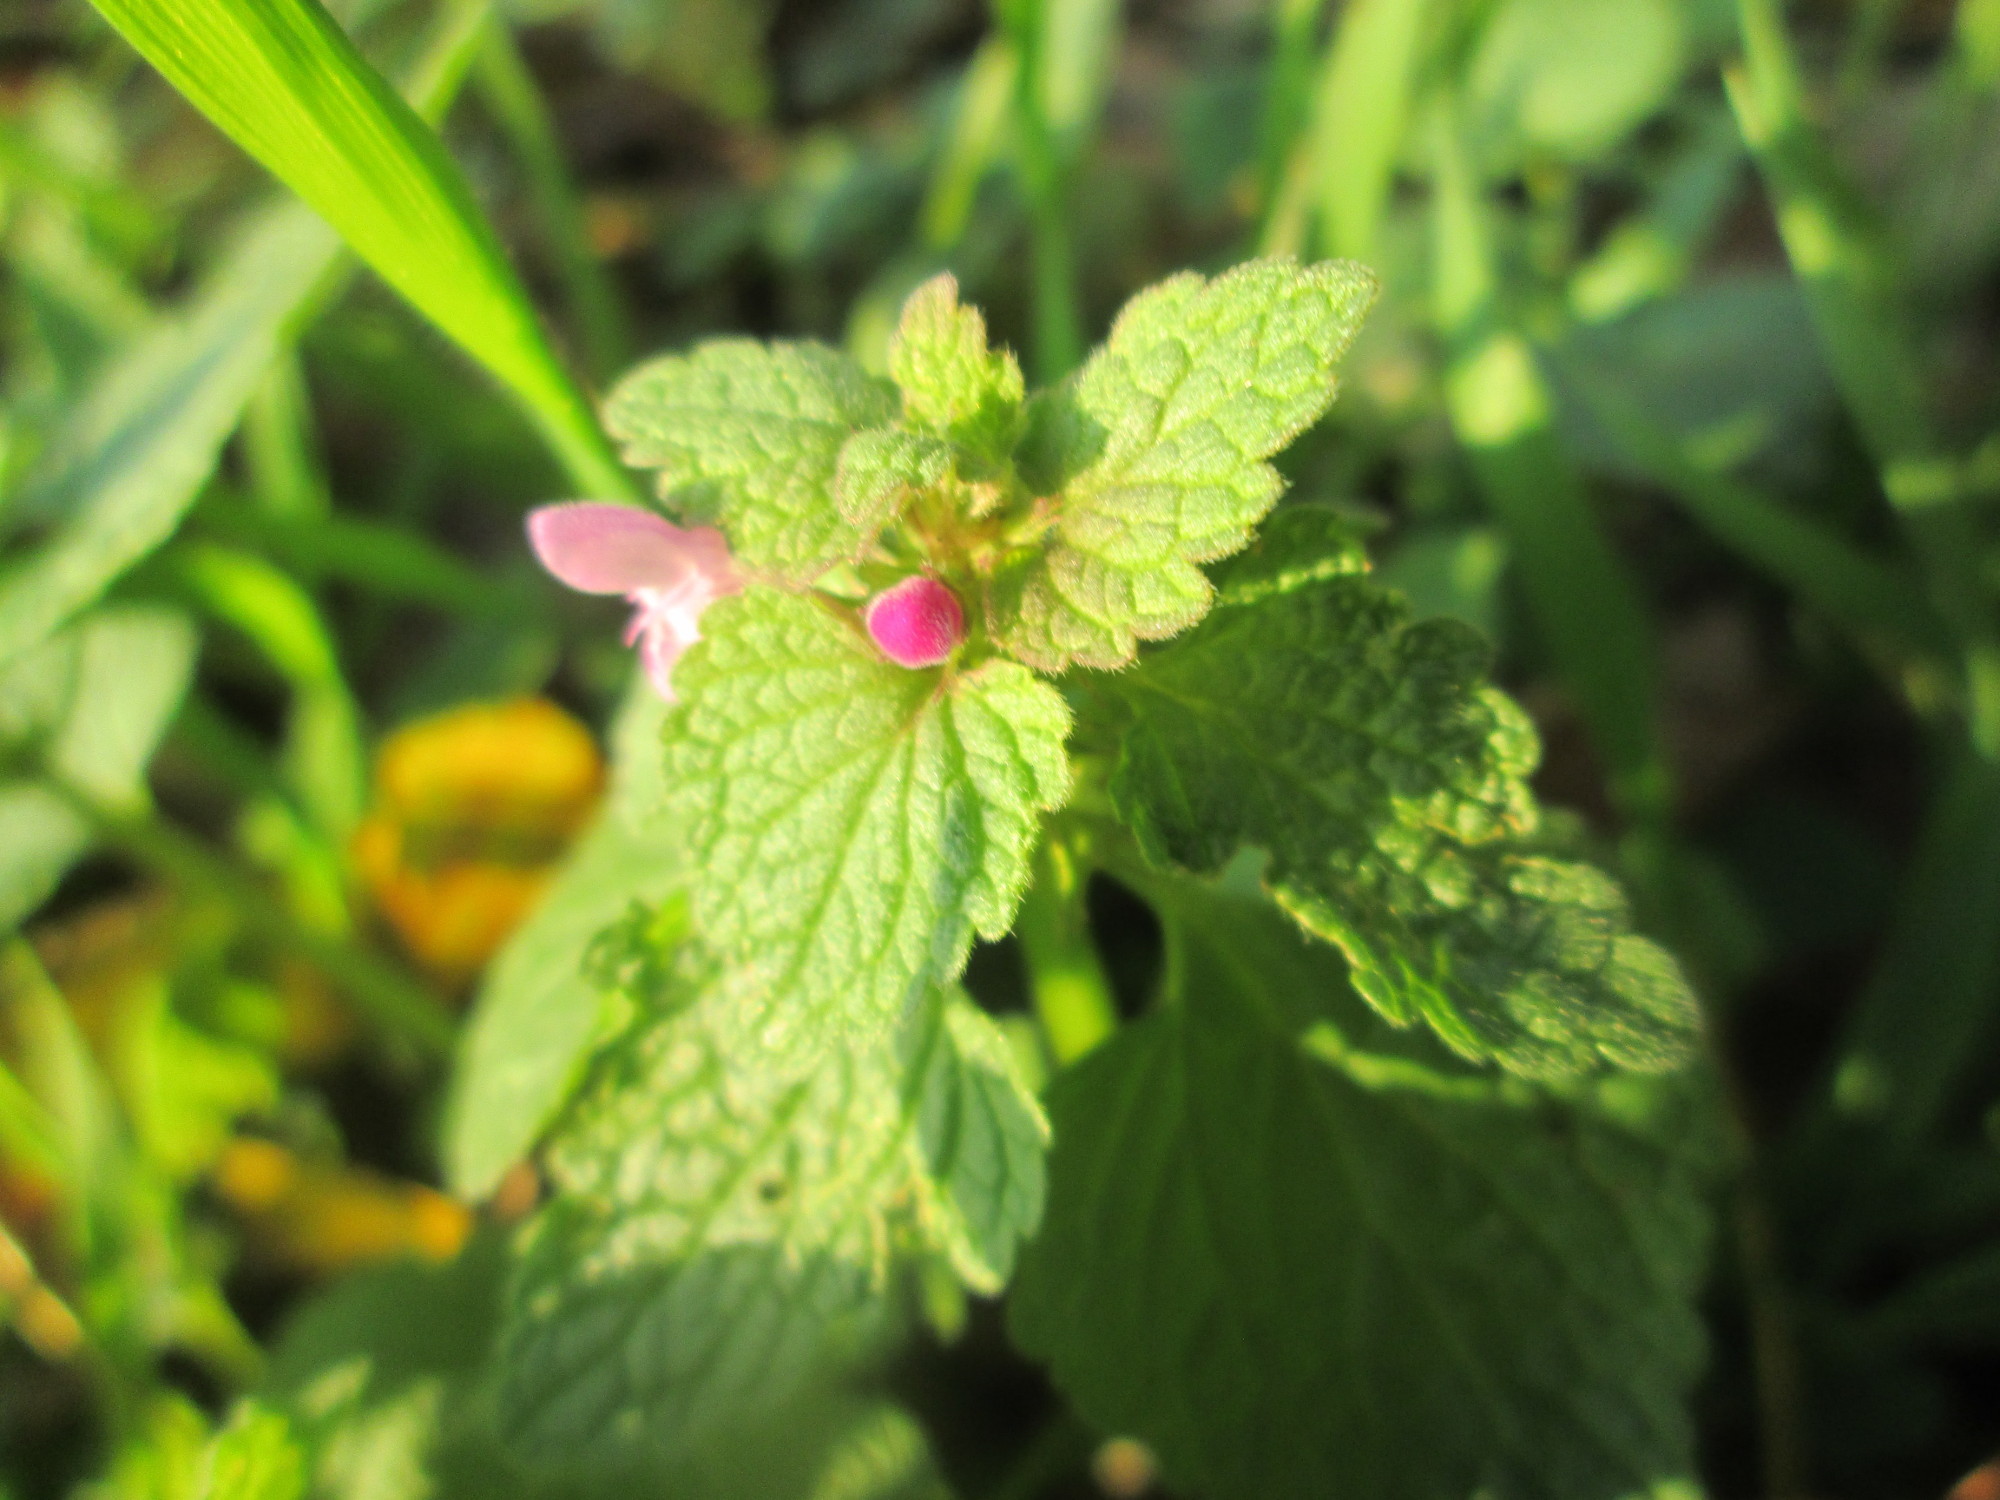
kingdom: Plantae
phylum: Tracheophyta
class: Magnoliopsida
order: Lamiales
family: Lamiaceae
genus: Lamium
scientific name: Lamium purpureum
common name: Red dead-nettle
